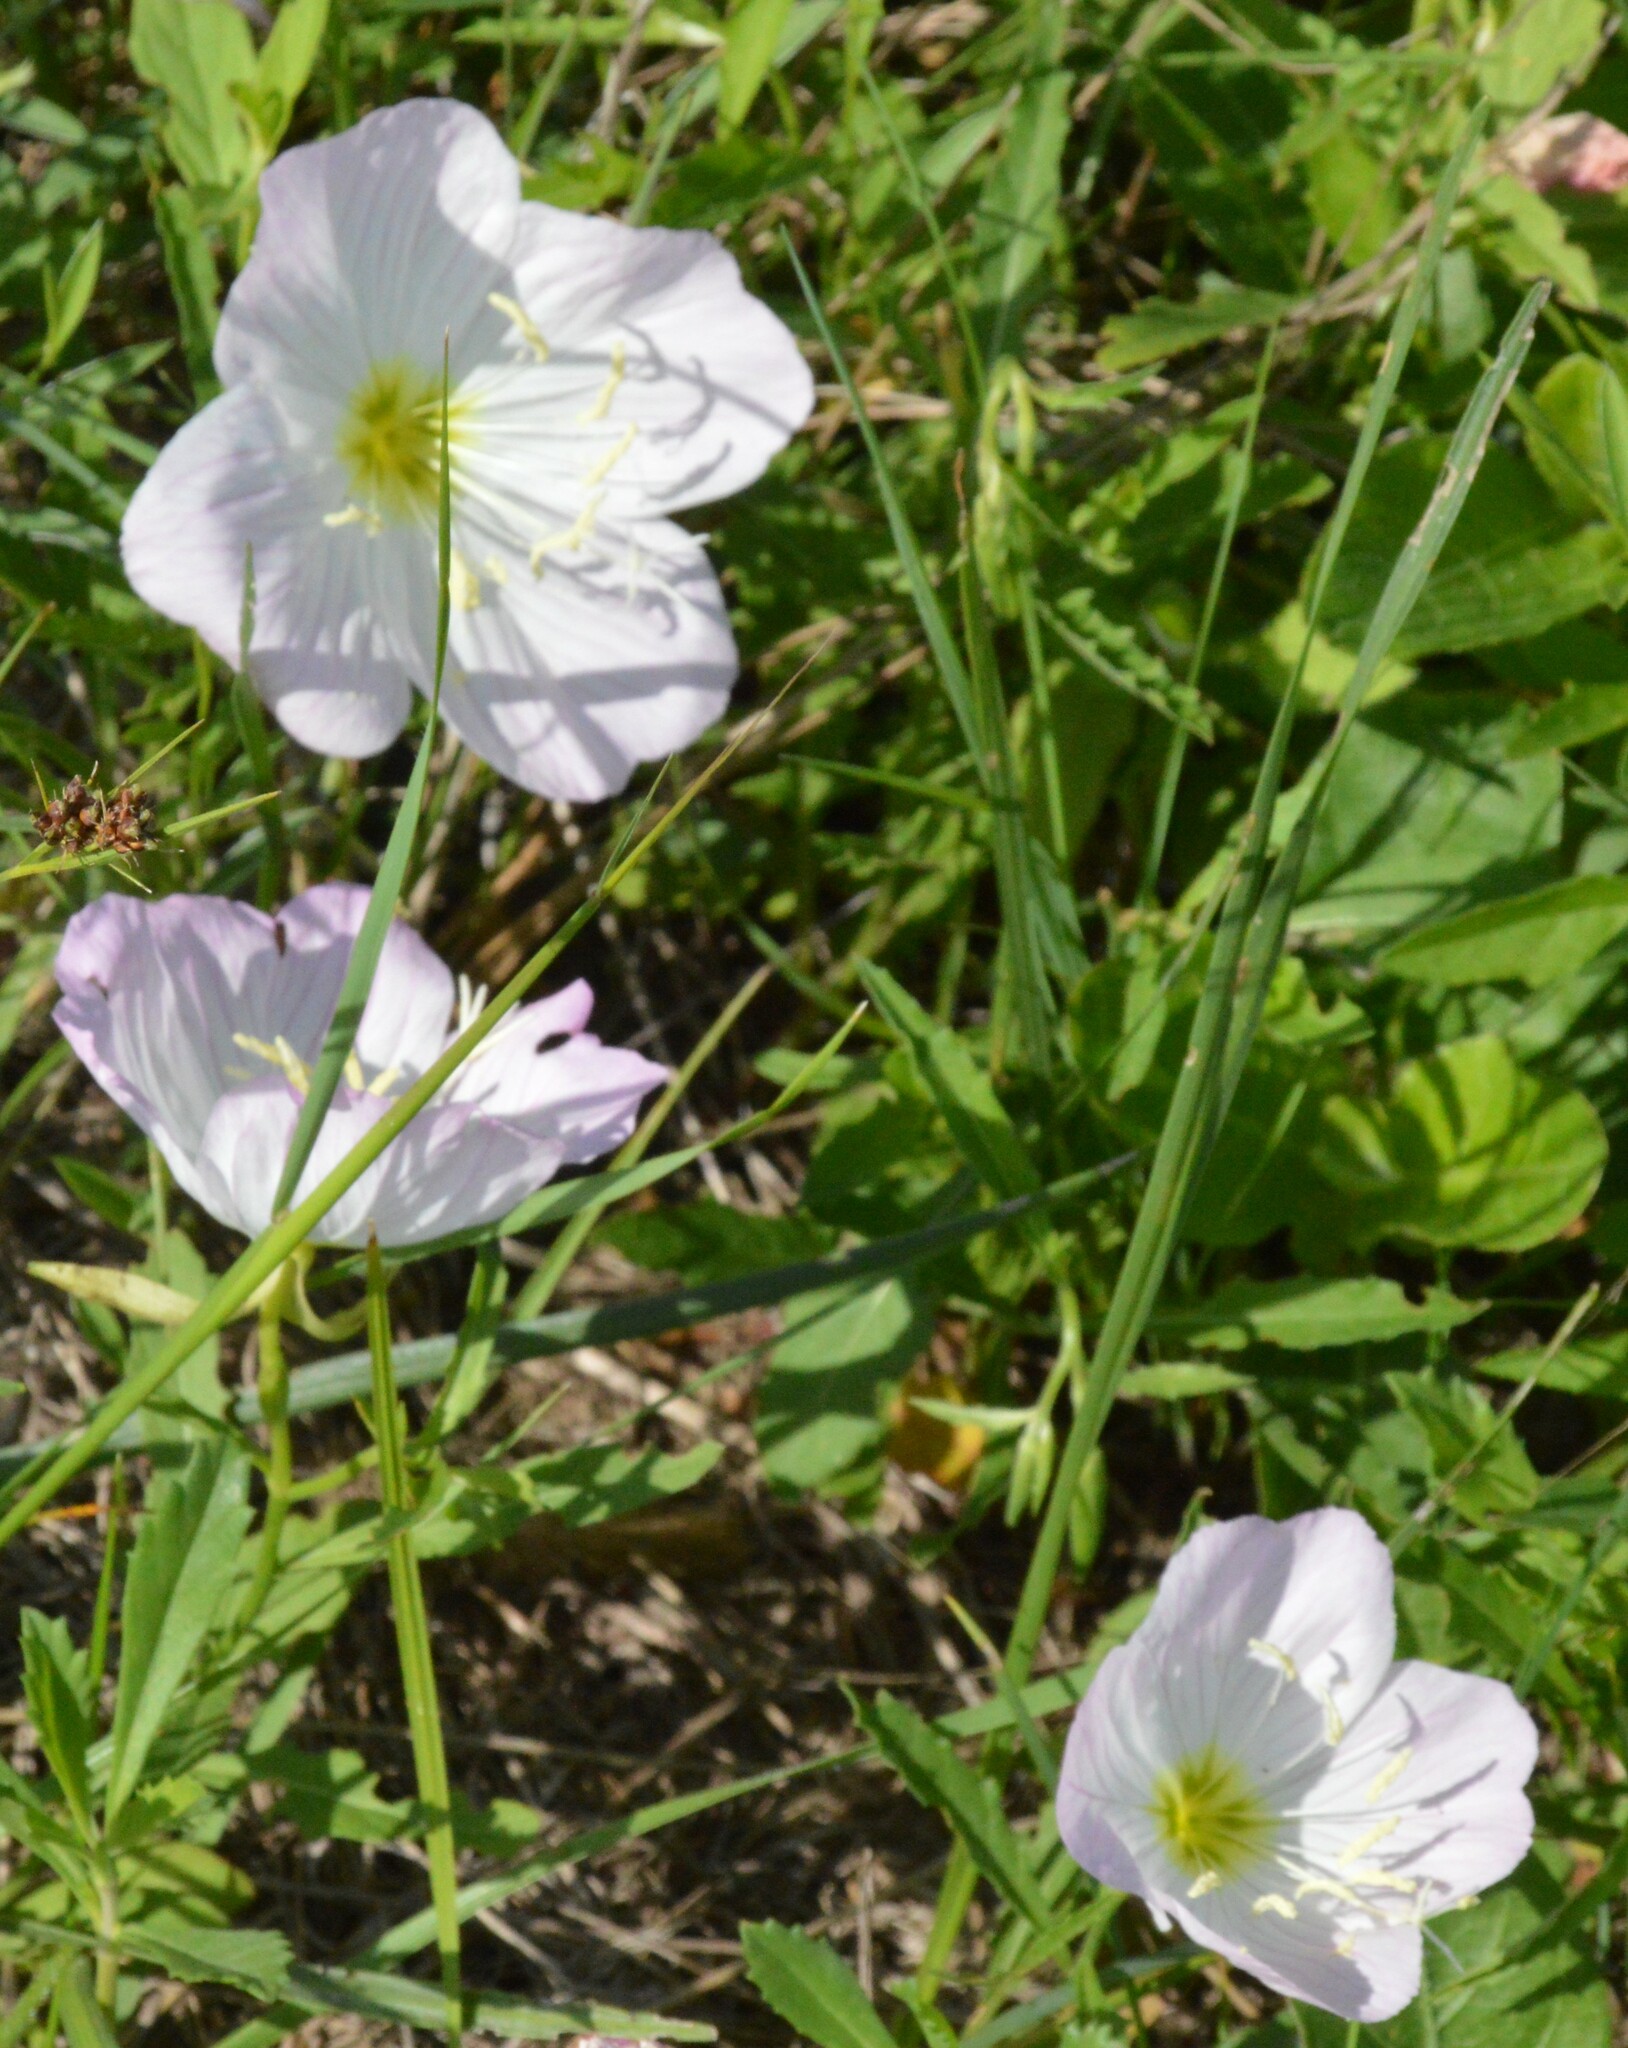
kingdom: Plantae
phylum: Tracheophyta
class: Magnoliopsida
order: Myrtales
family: Onagraceae
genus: Oenothera
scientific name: Oenothera speciosa
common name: White evening-primrose
